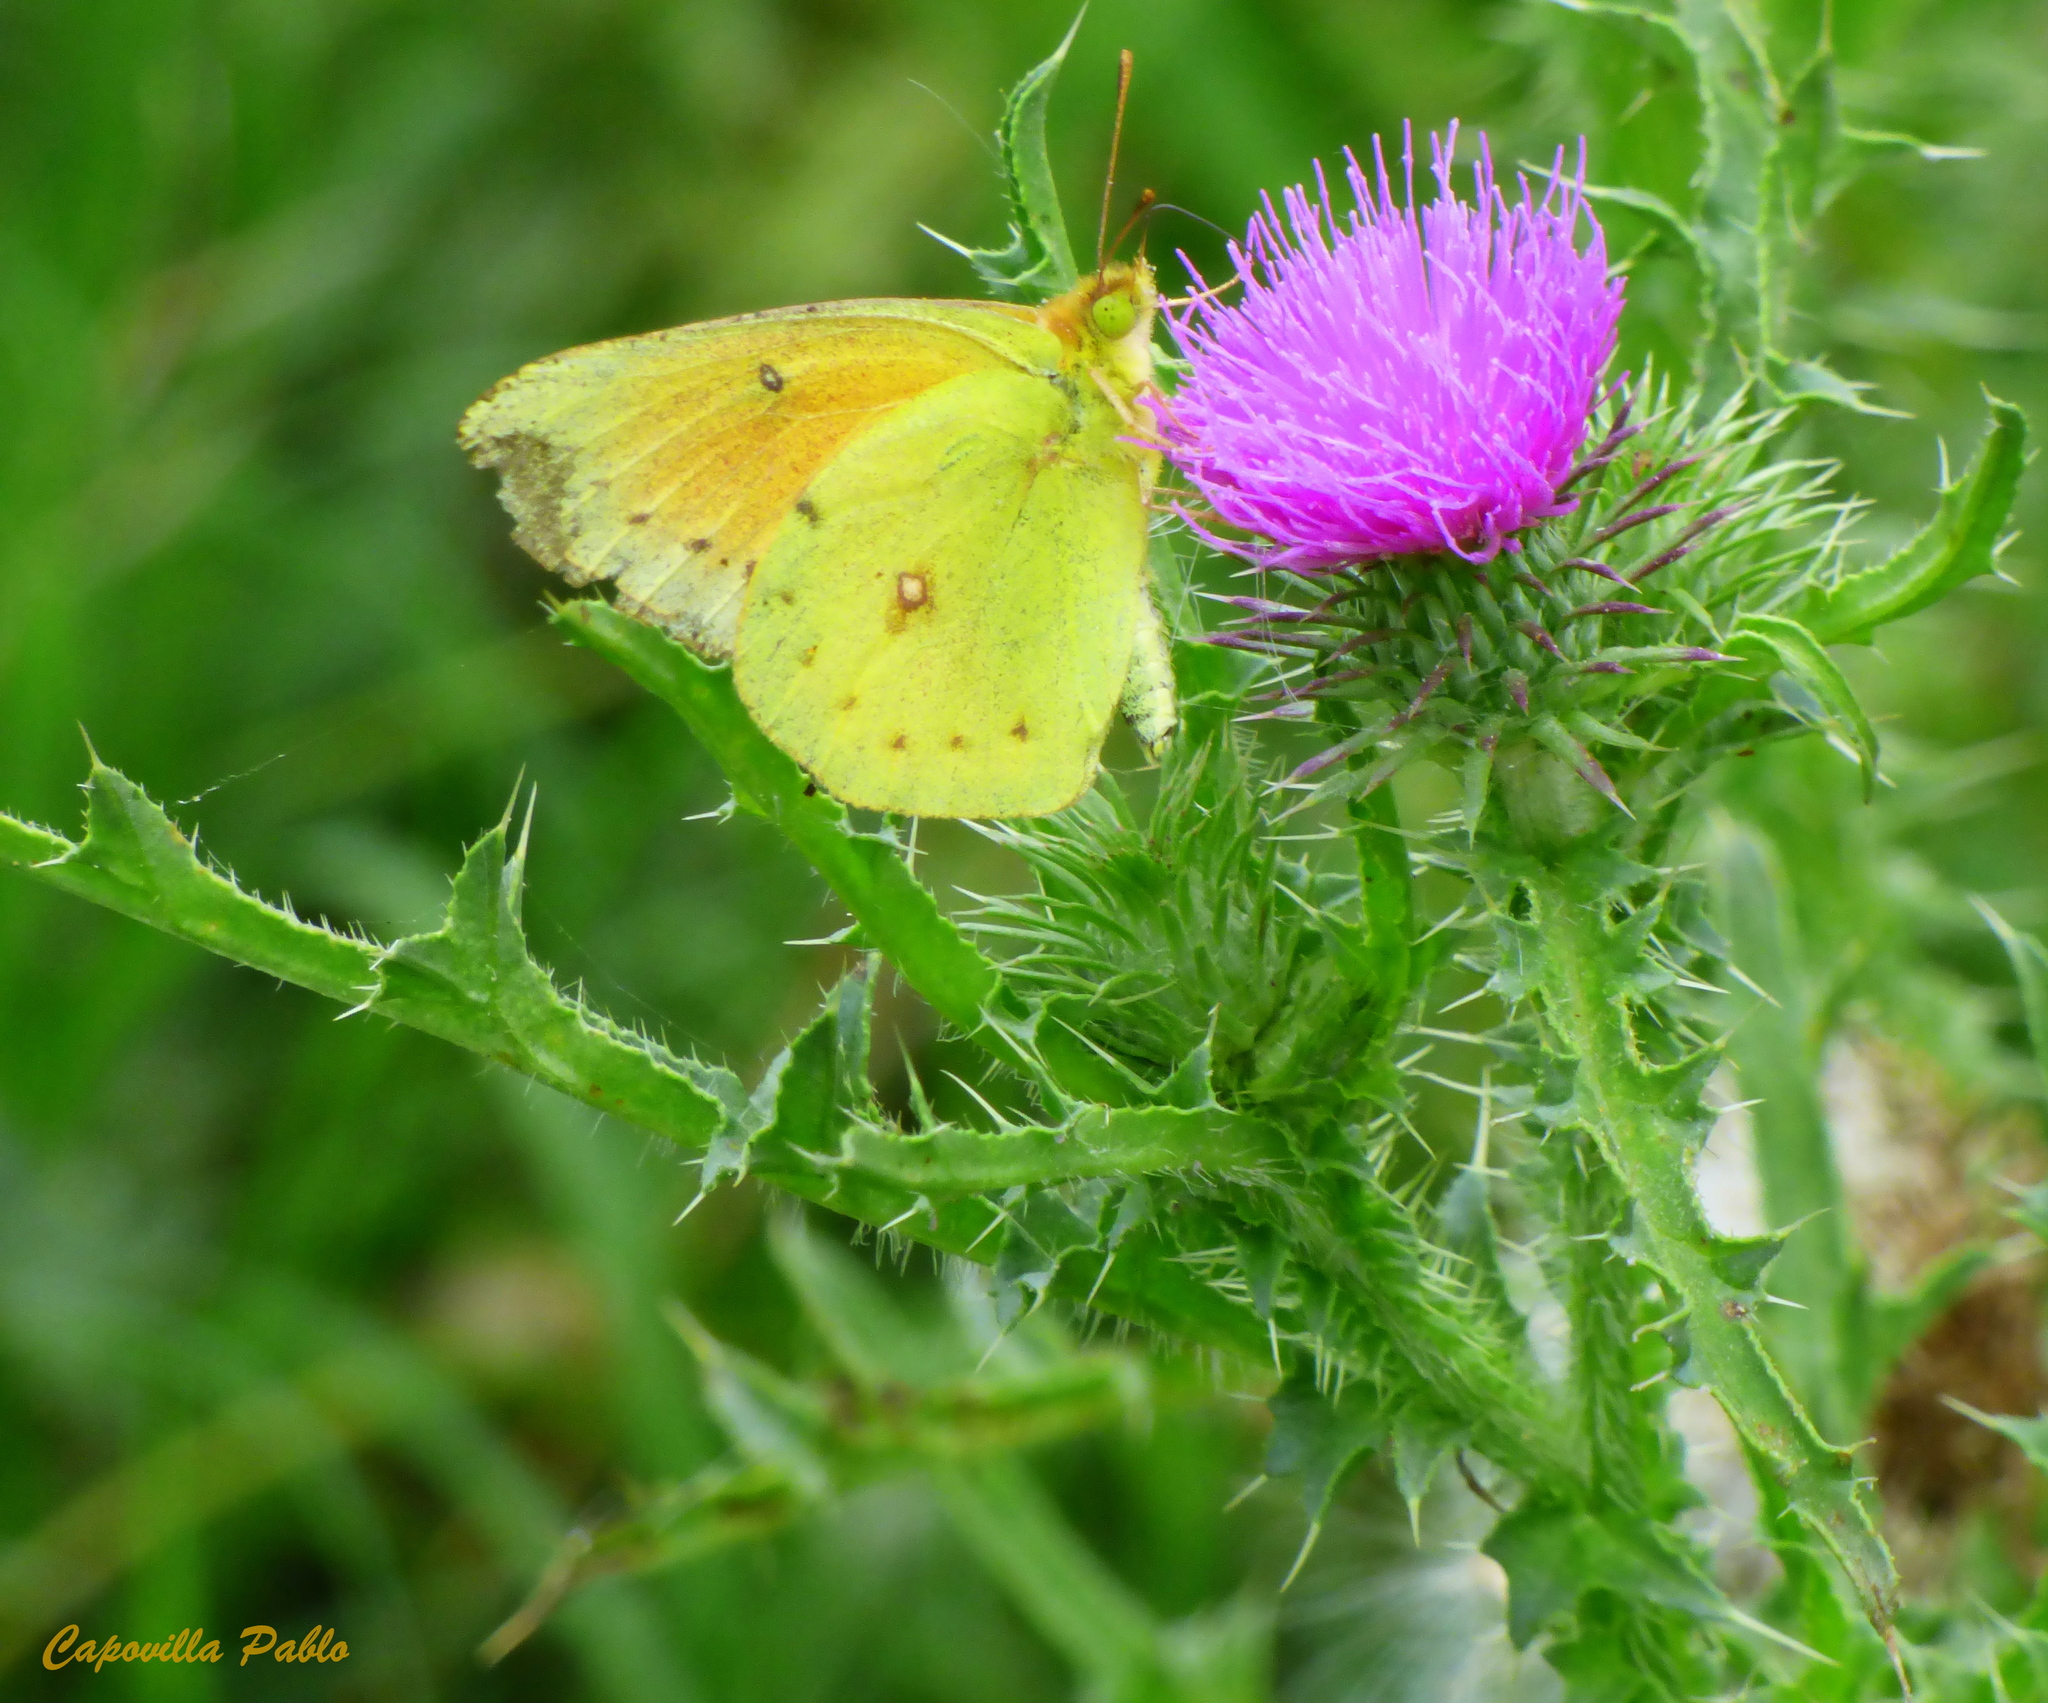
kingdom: Animalia
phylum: Arthropoda
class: Insecta
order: Lepidoptera
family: Pieridae
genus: Colias
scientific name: Colias lesbia
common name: Lesbia clouded yellow
